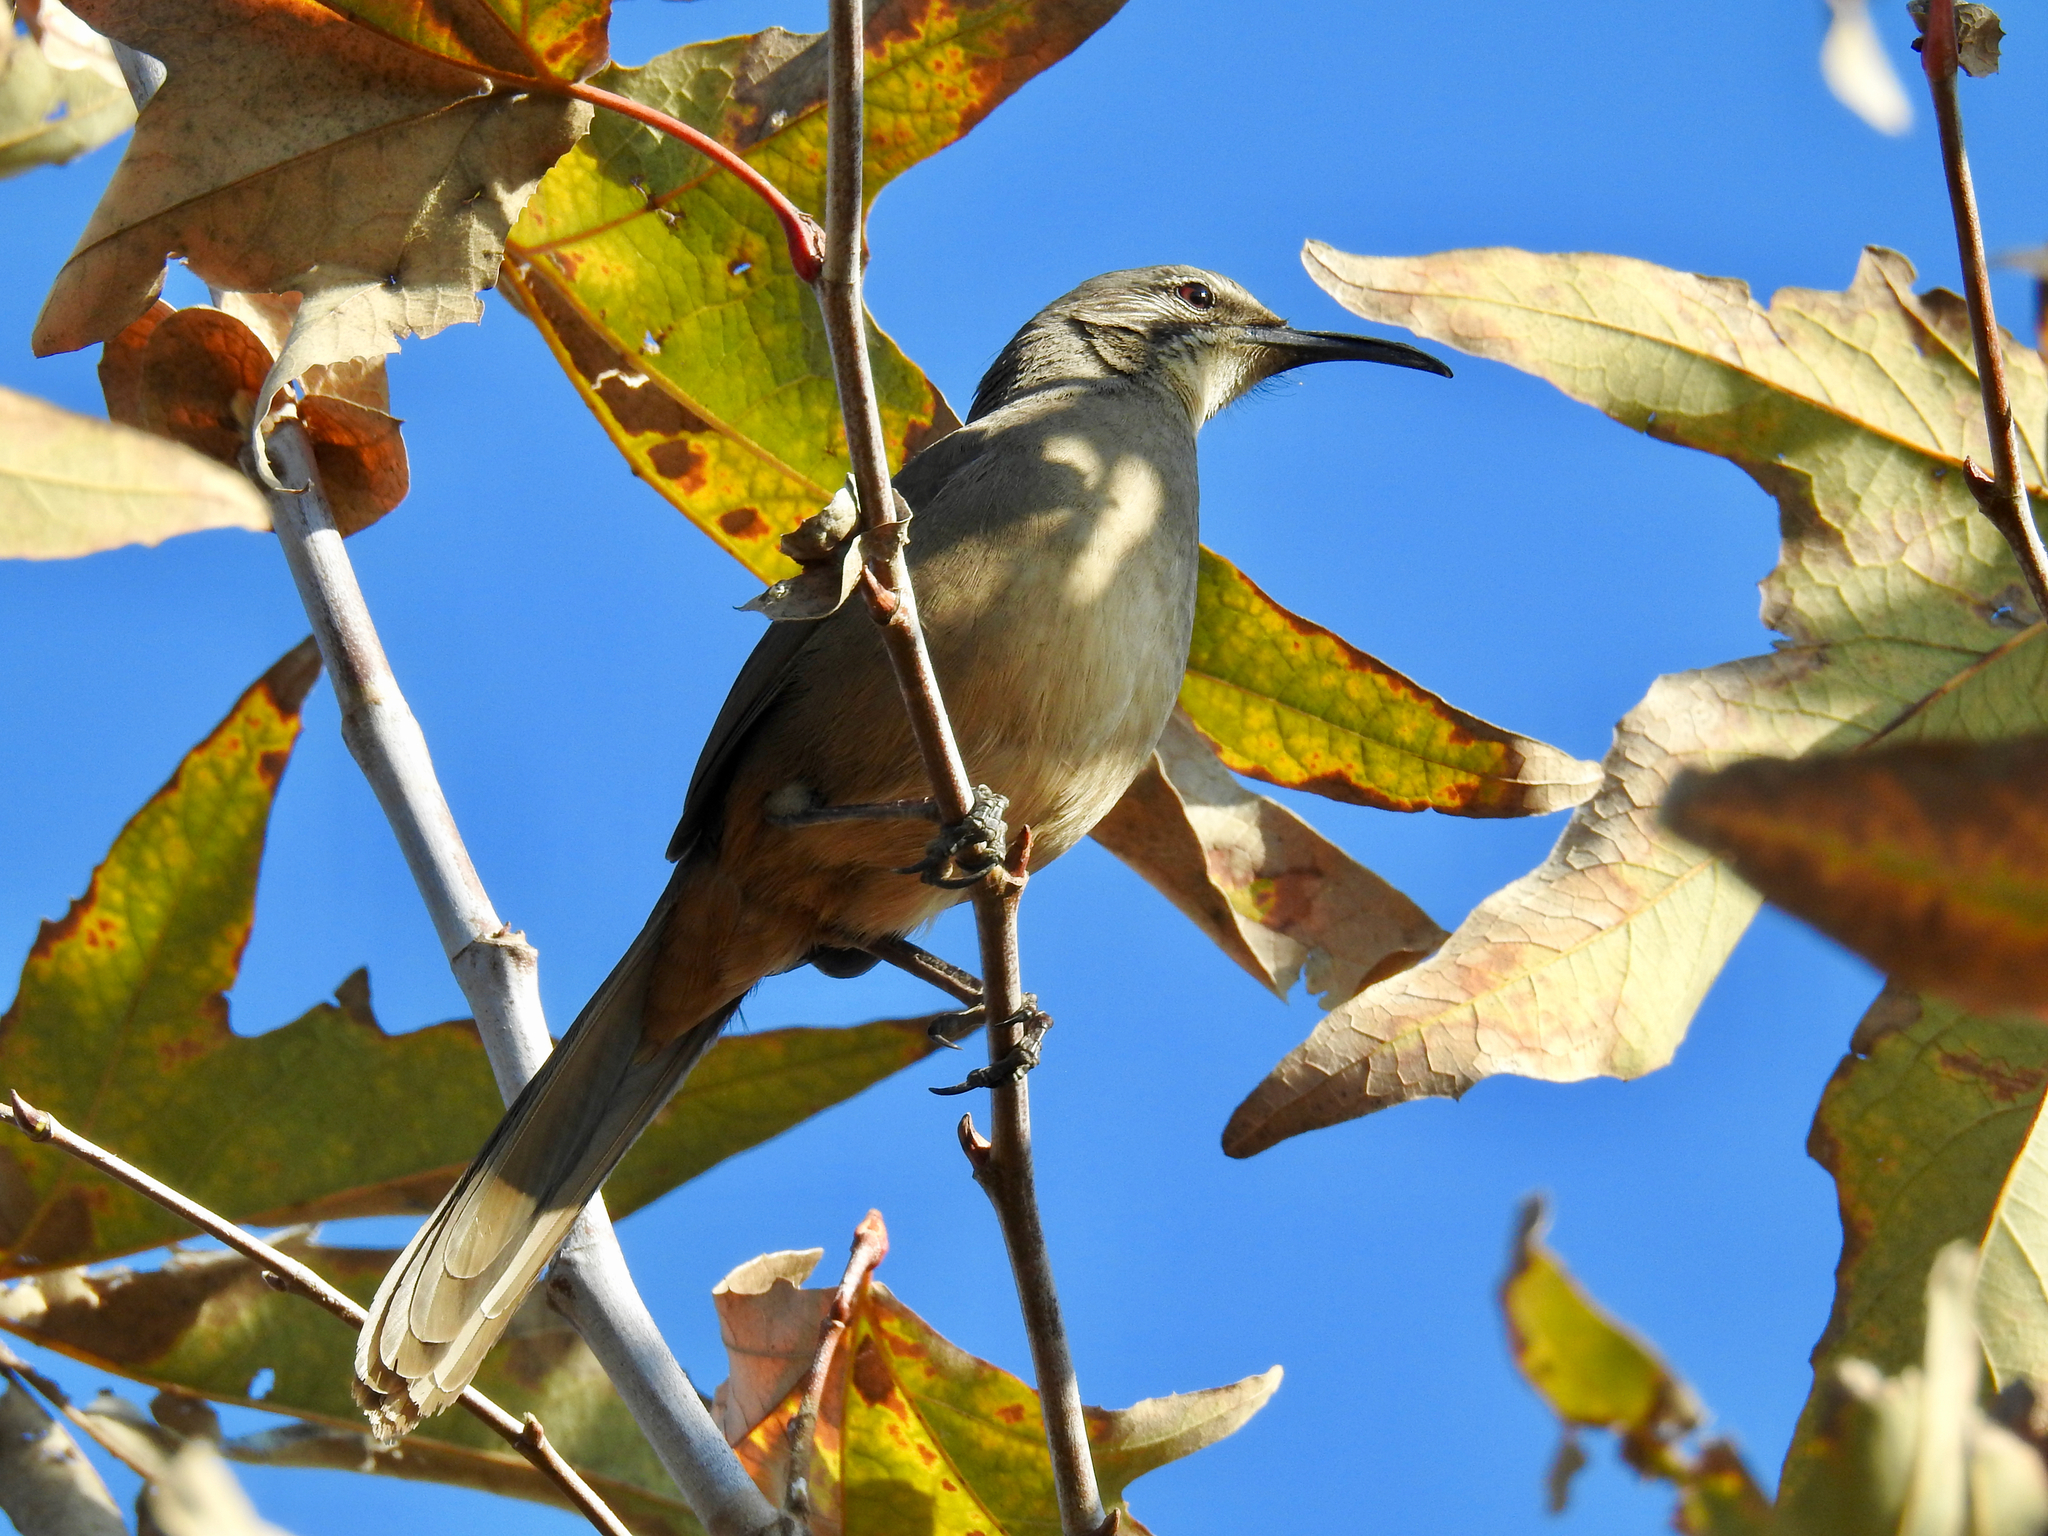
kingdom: Animalia
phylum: Chordata
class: Aves
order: Passeriformes
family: Mimidae
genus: Toxostoma
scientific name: Toxostoma redivivum
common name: California thrasher
